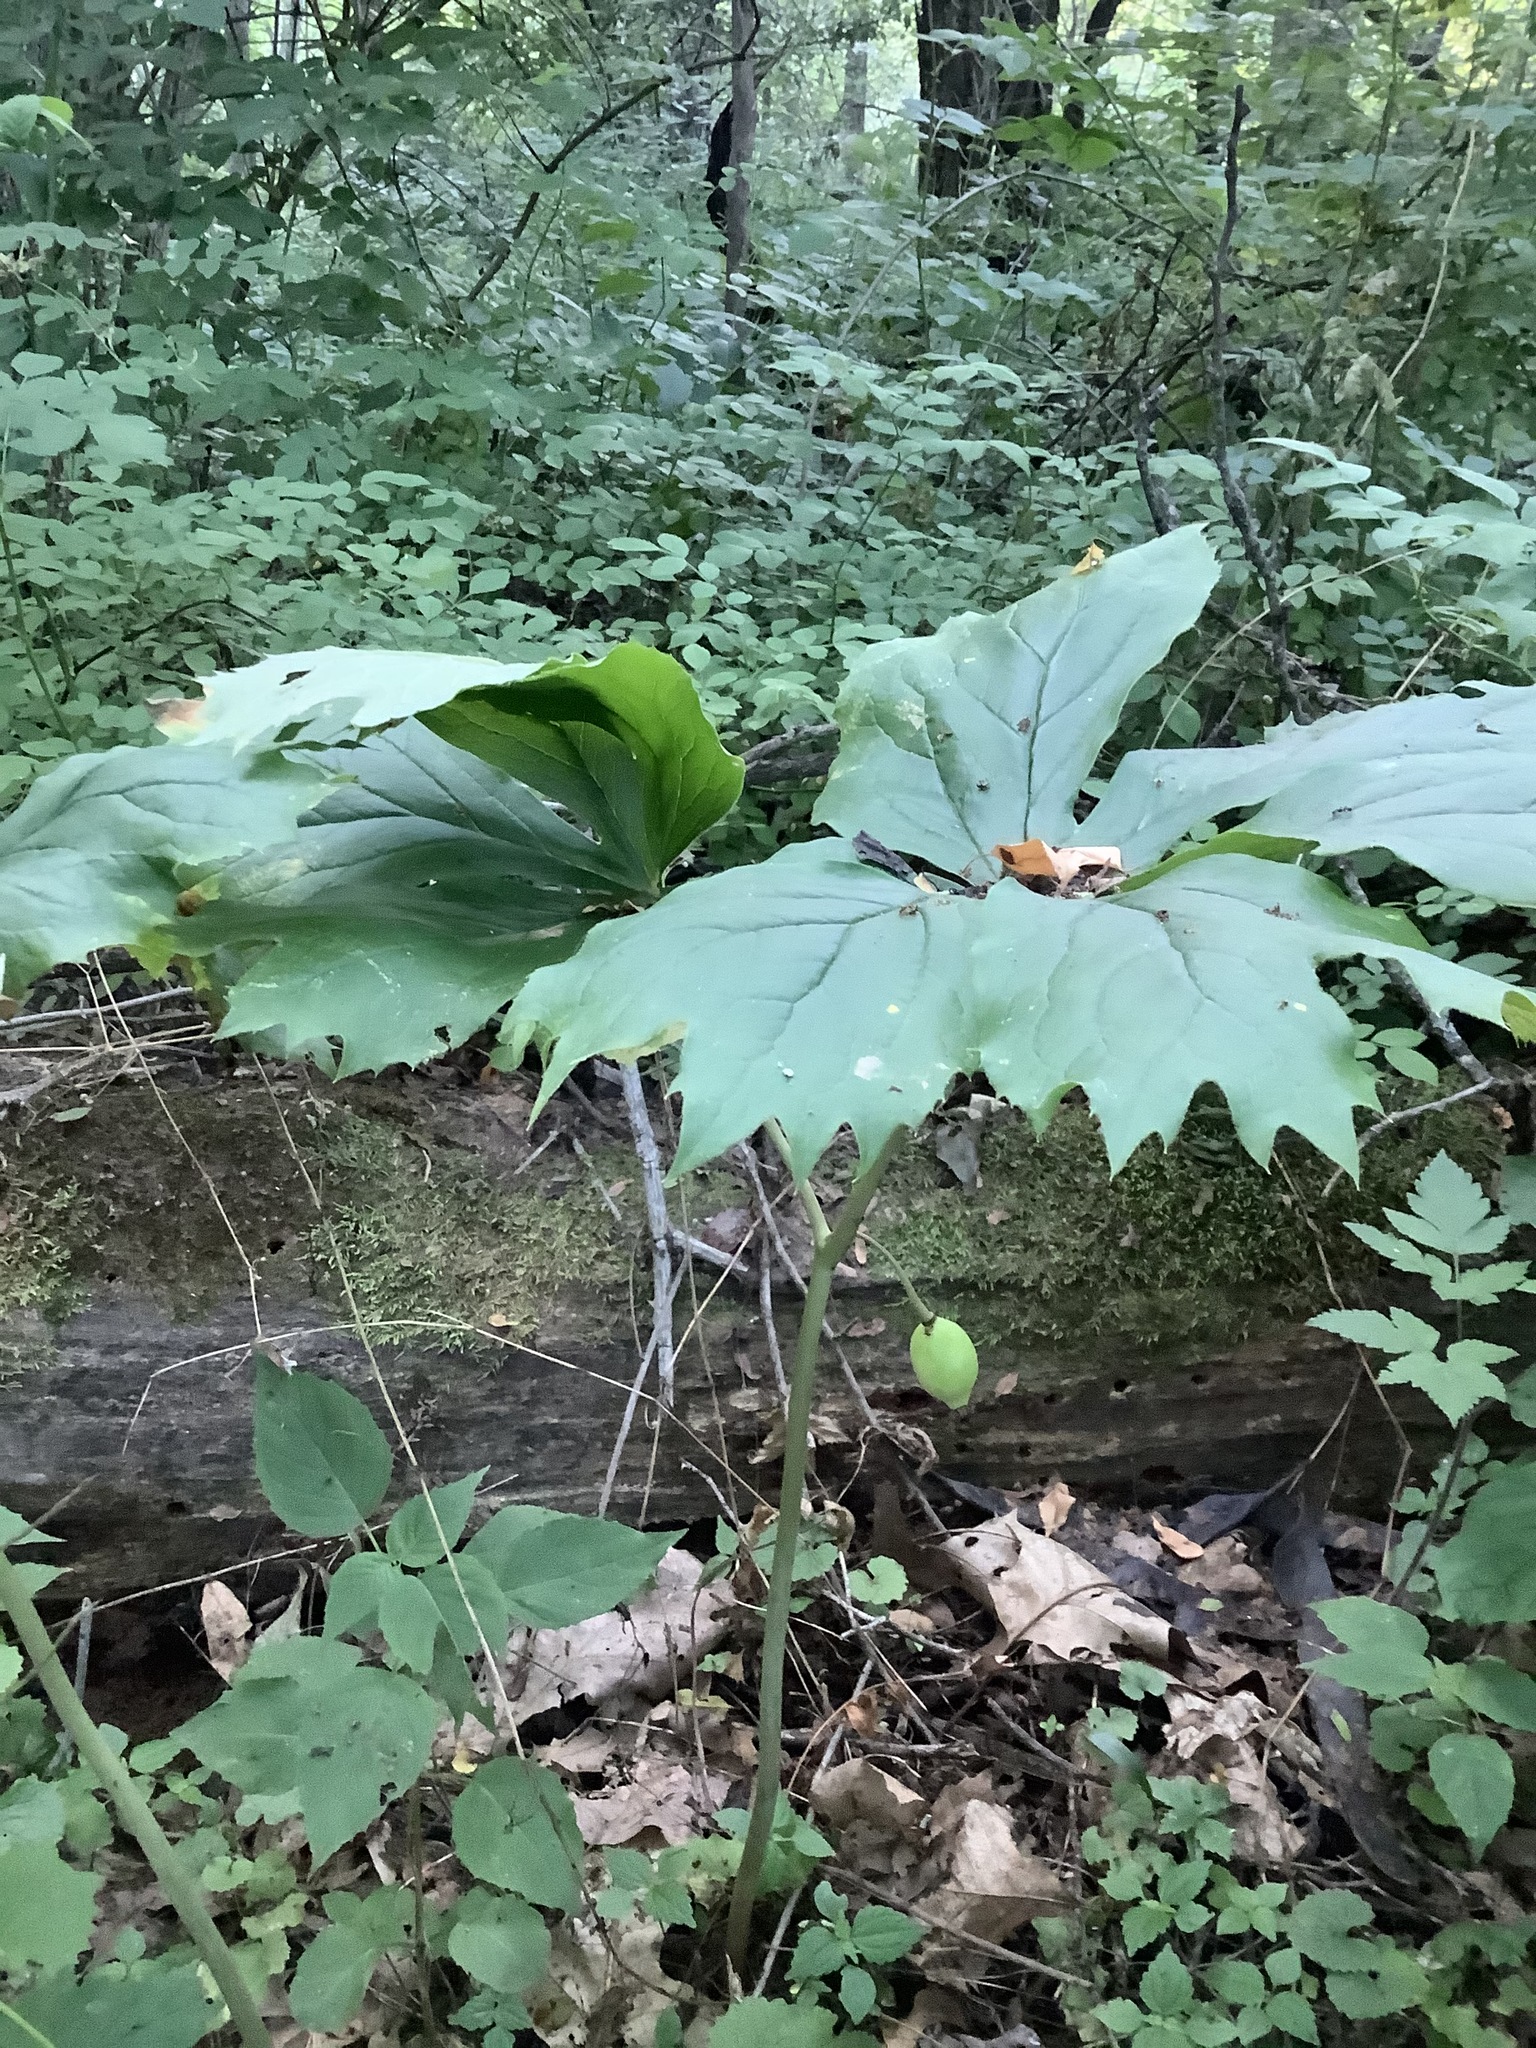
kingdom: Plantae
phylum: Tracheophyta
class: Magnoliopsida
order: Ranunculales
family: Berberidaceae
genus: Podophyllum
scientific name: Podophyllum peltatum
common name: Wild mandrake
